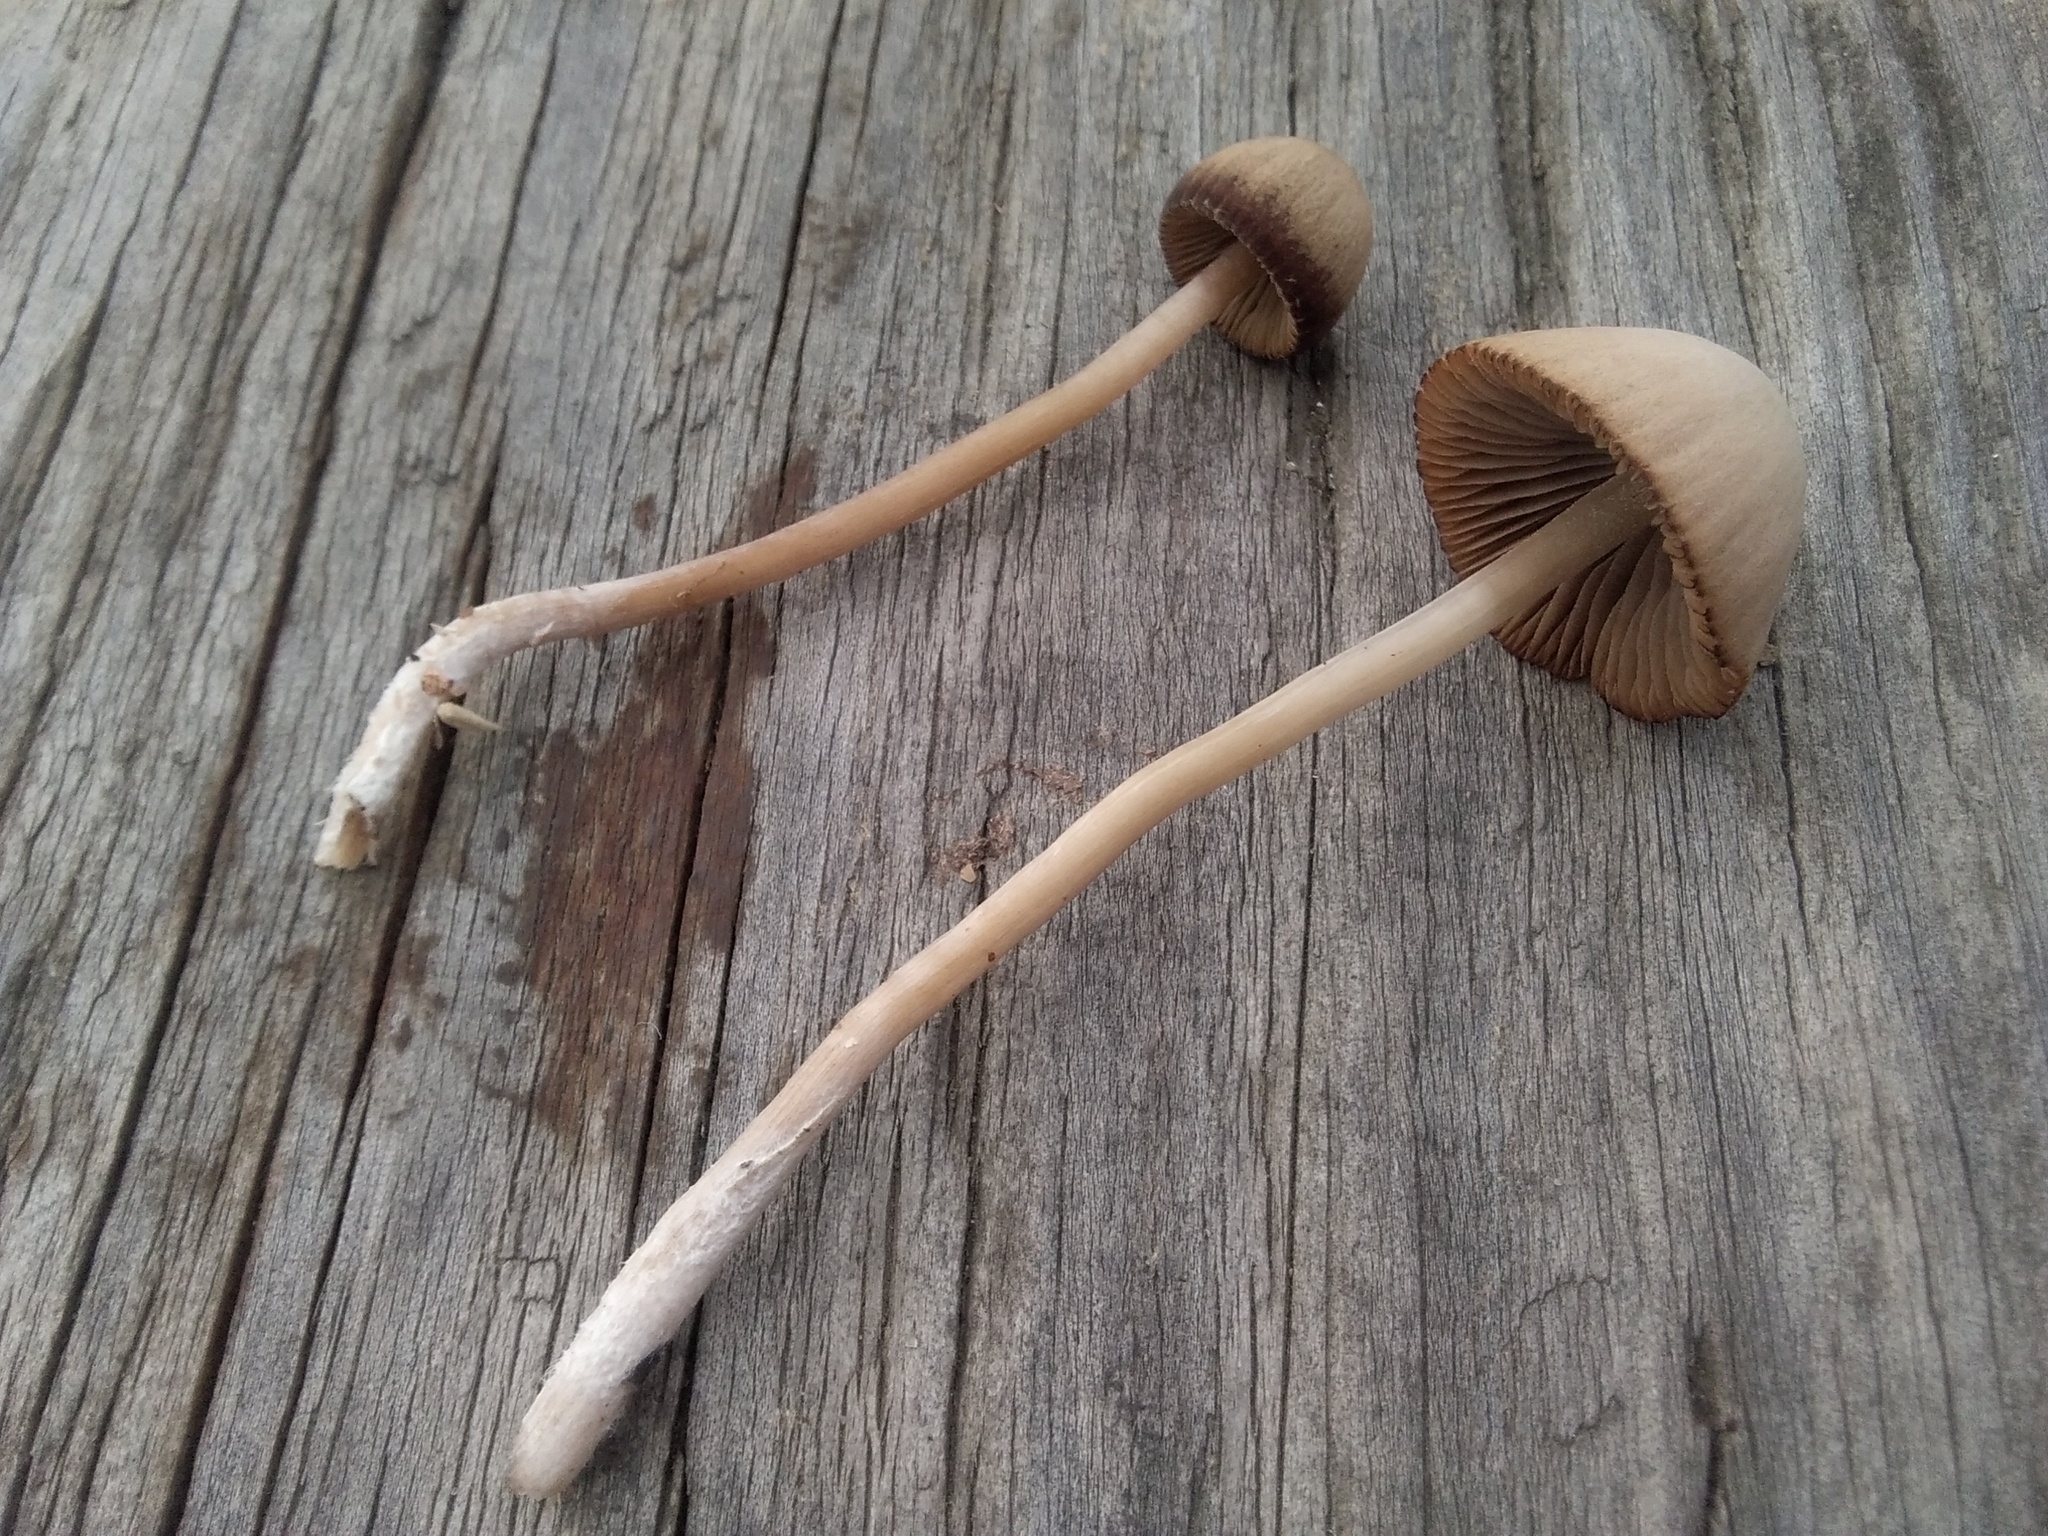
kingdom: Fungi
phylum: Basidiomycota
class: Agaricomycetes
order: Agaricales
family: Bolbitiaceae
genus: Conocybe
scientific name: Conocybe apala
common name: Milky conecap
